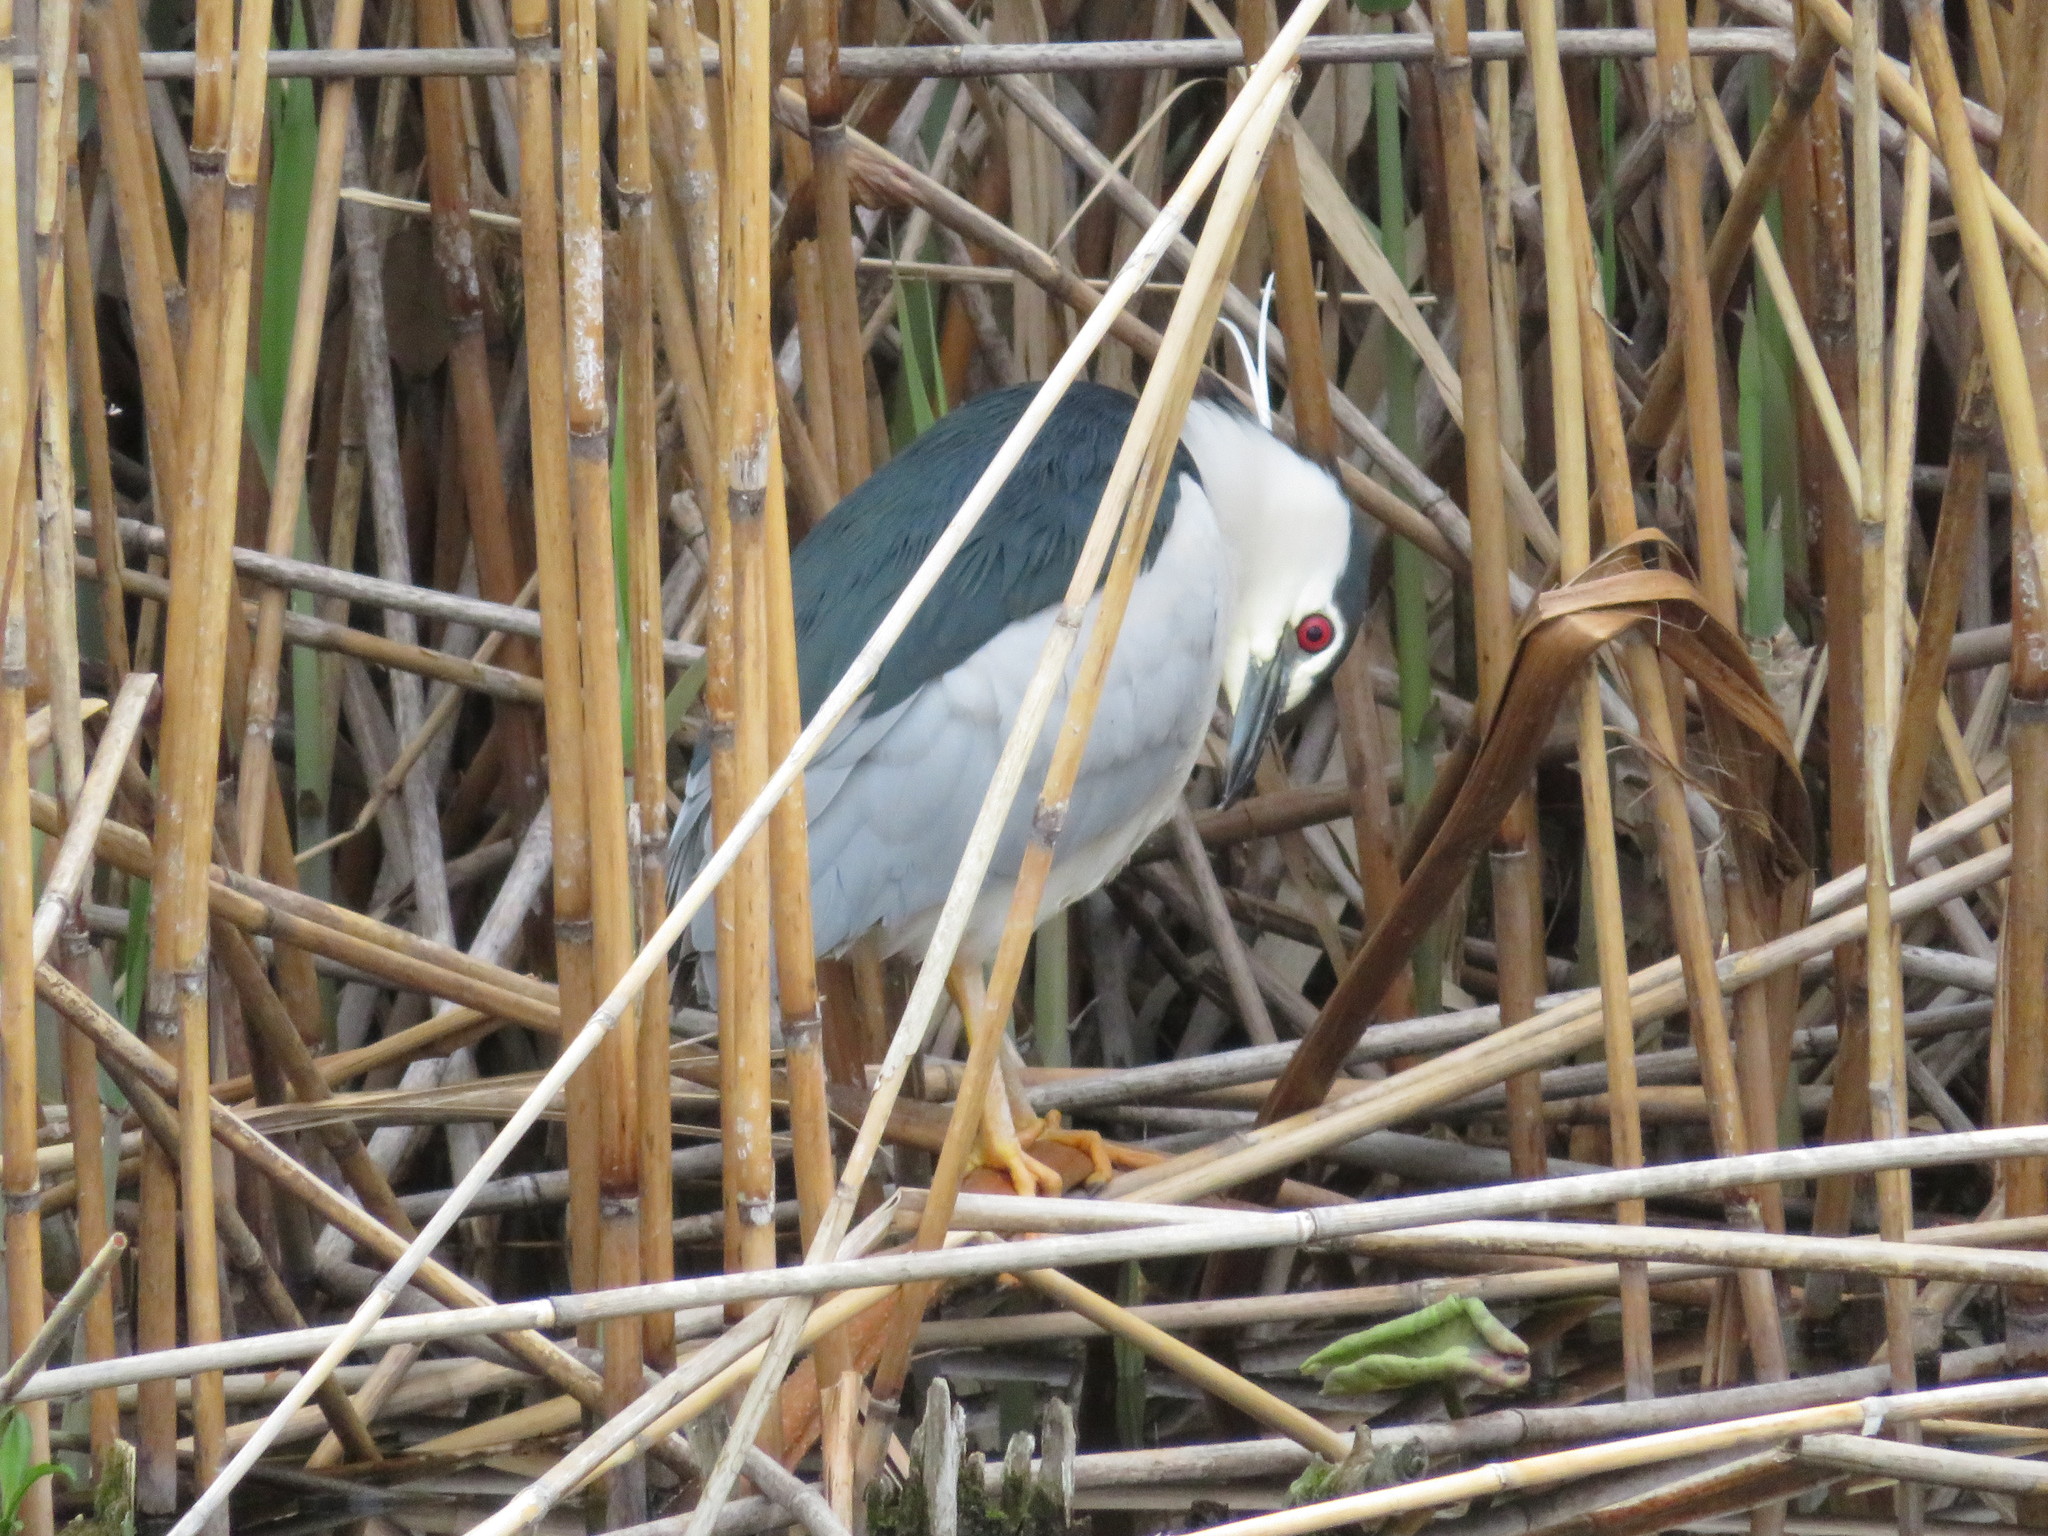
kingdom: Animalia
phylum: Chordata
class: Aves
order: Pelecaniformes
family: Ardeidae
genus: Nycticorax
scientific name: Nycticorax nycticorax
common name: Black-crowned night heron
